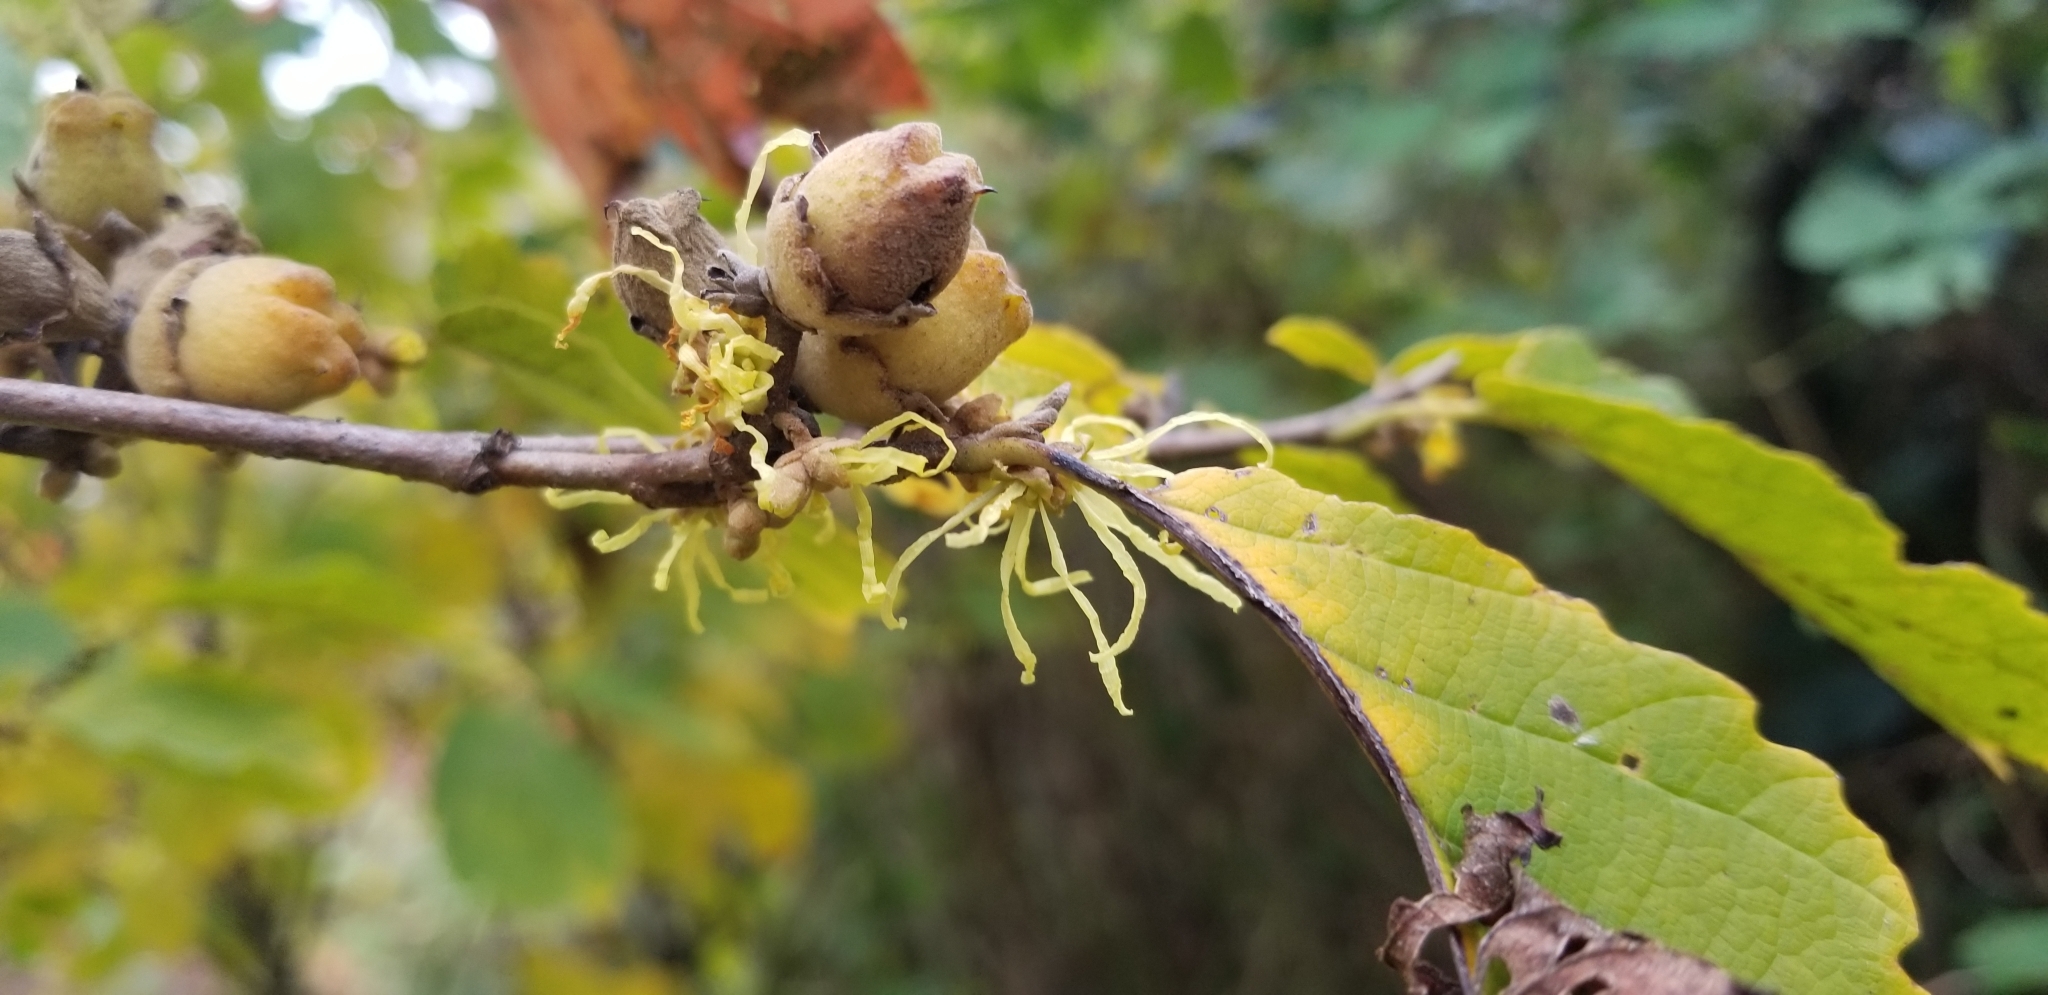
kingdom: Plantae
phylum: Tracheophyta
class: Magnoliopsida
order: Saxifragales
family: Hamamelidaceae
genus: Hamamelis
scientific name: Hamamelis virginiana
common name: Witch-hazel
